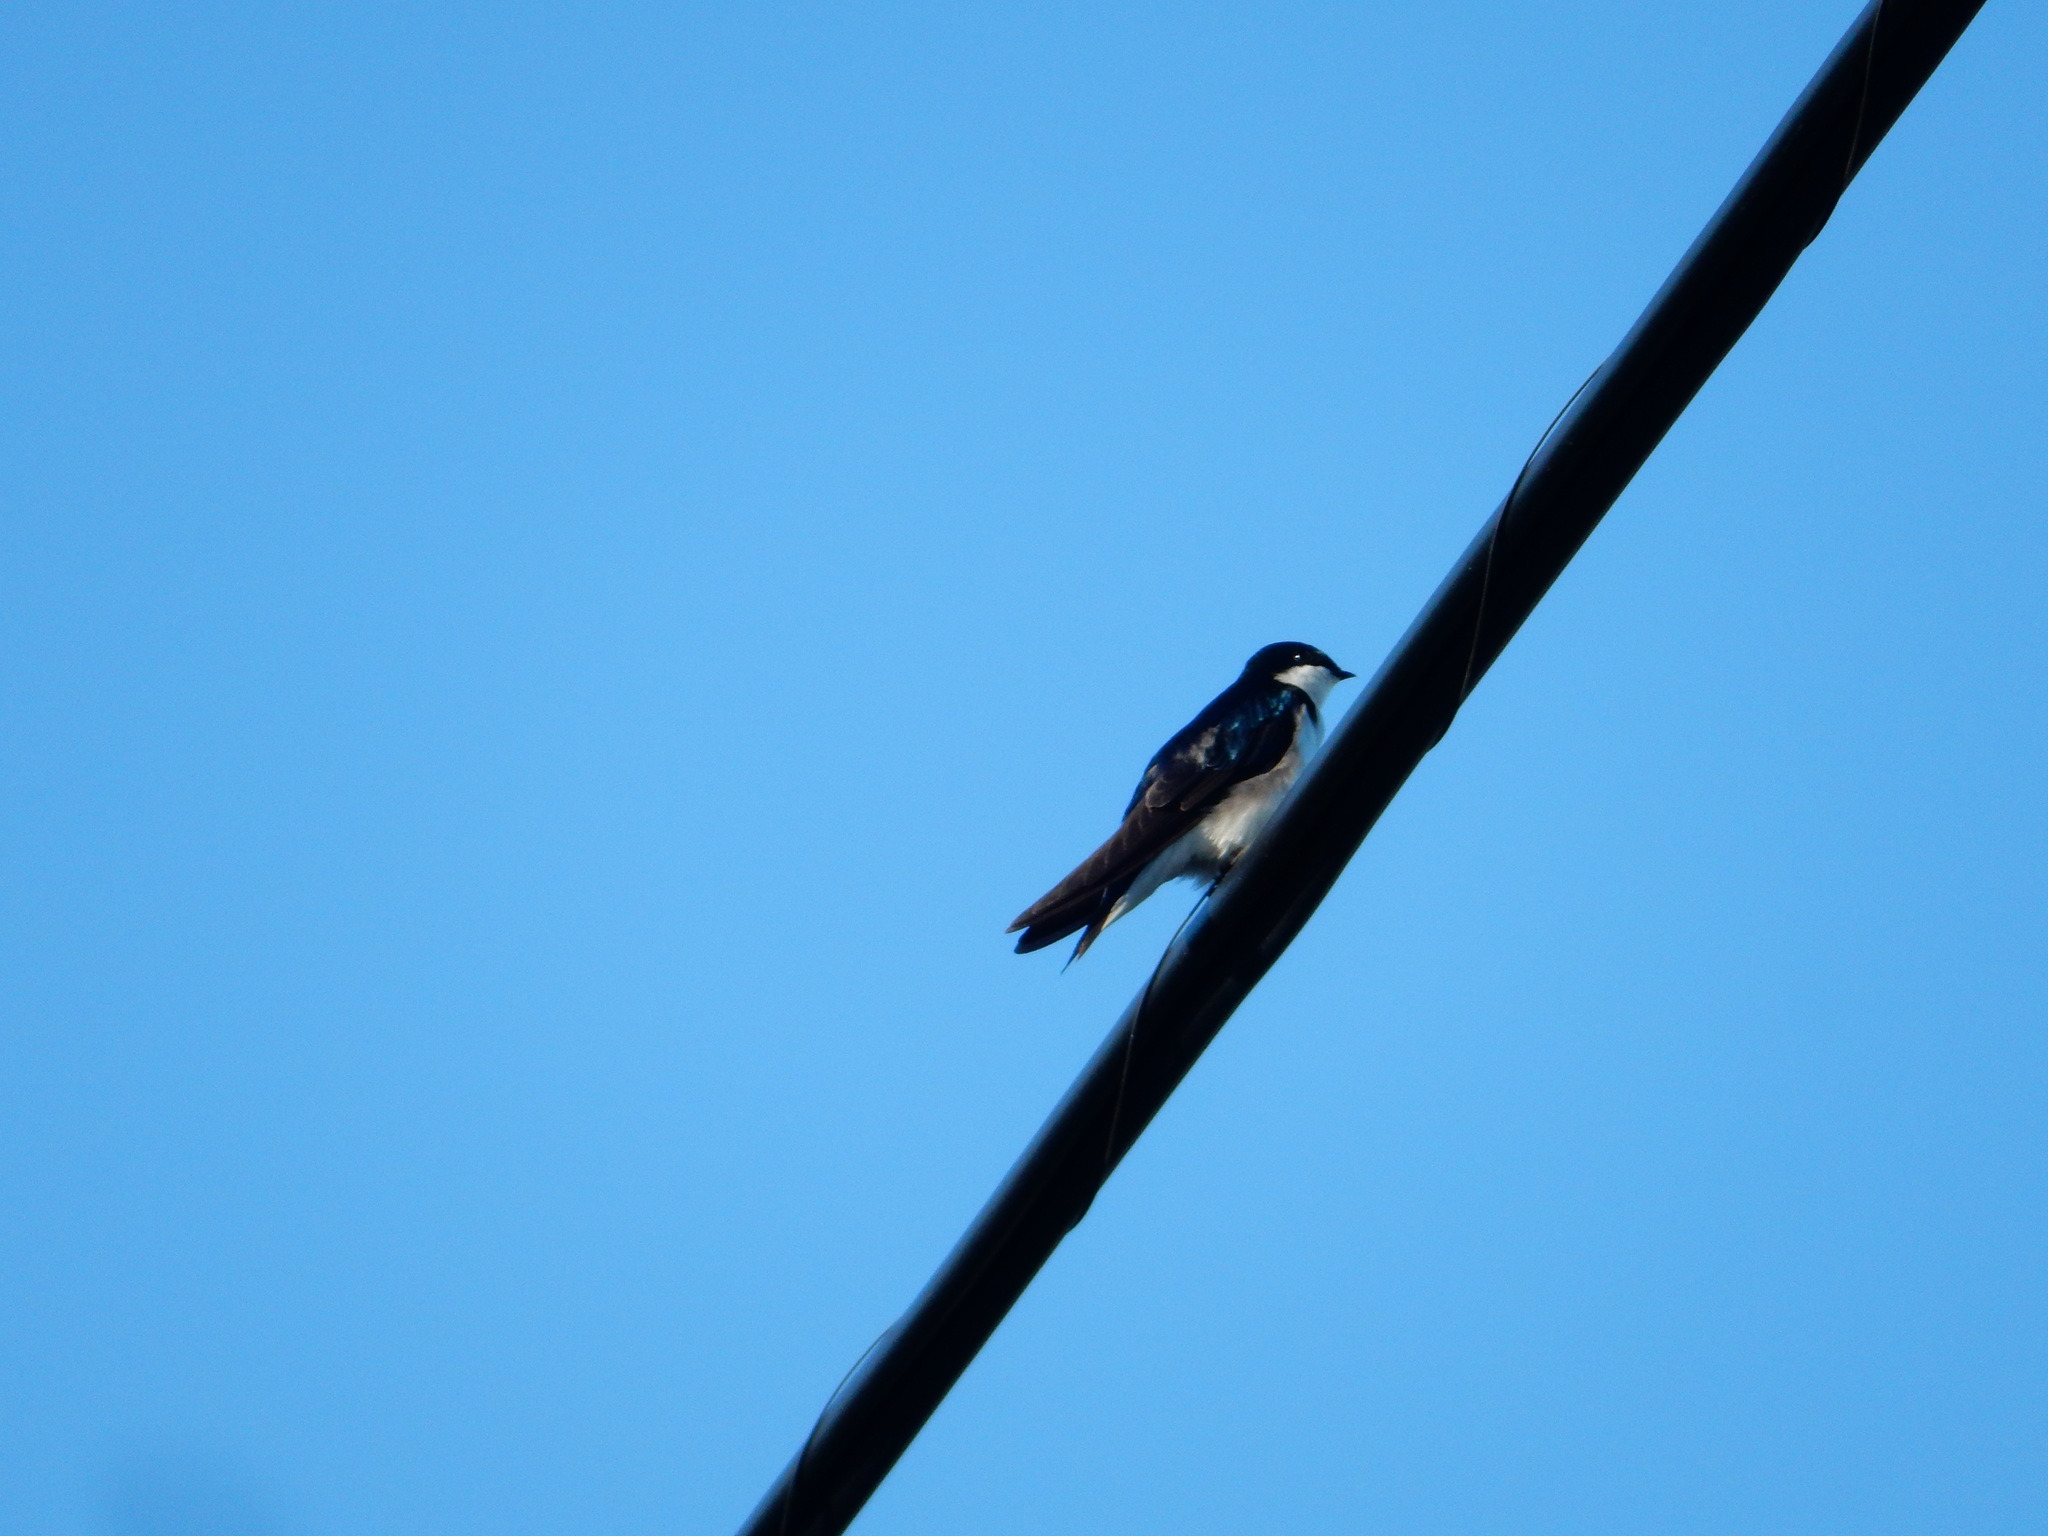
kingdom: Animalia
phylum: Chordata
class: Aves
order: Passeriformes
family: Hirundinidae
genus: Tachycineta
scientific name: Tachycineta bicolor
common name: Tree swallow
